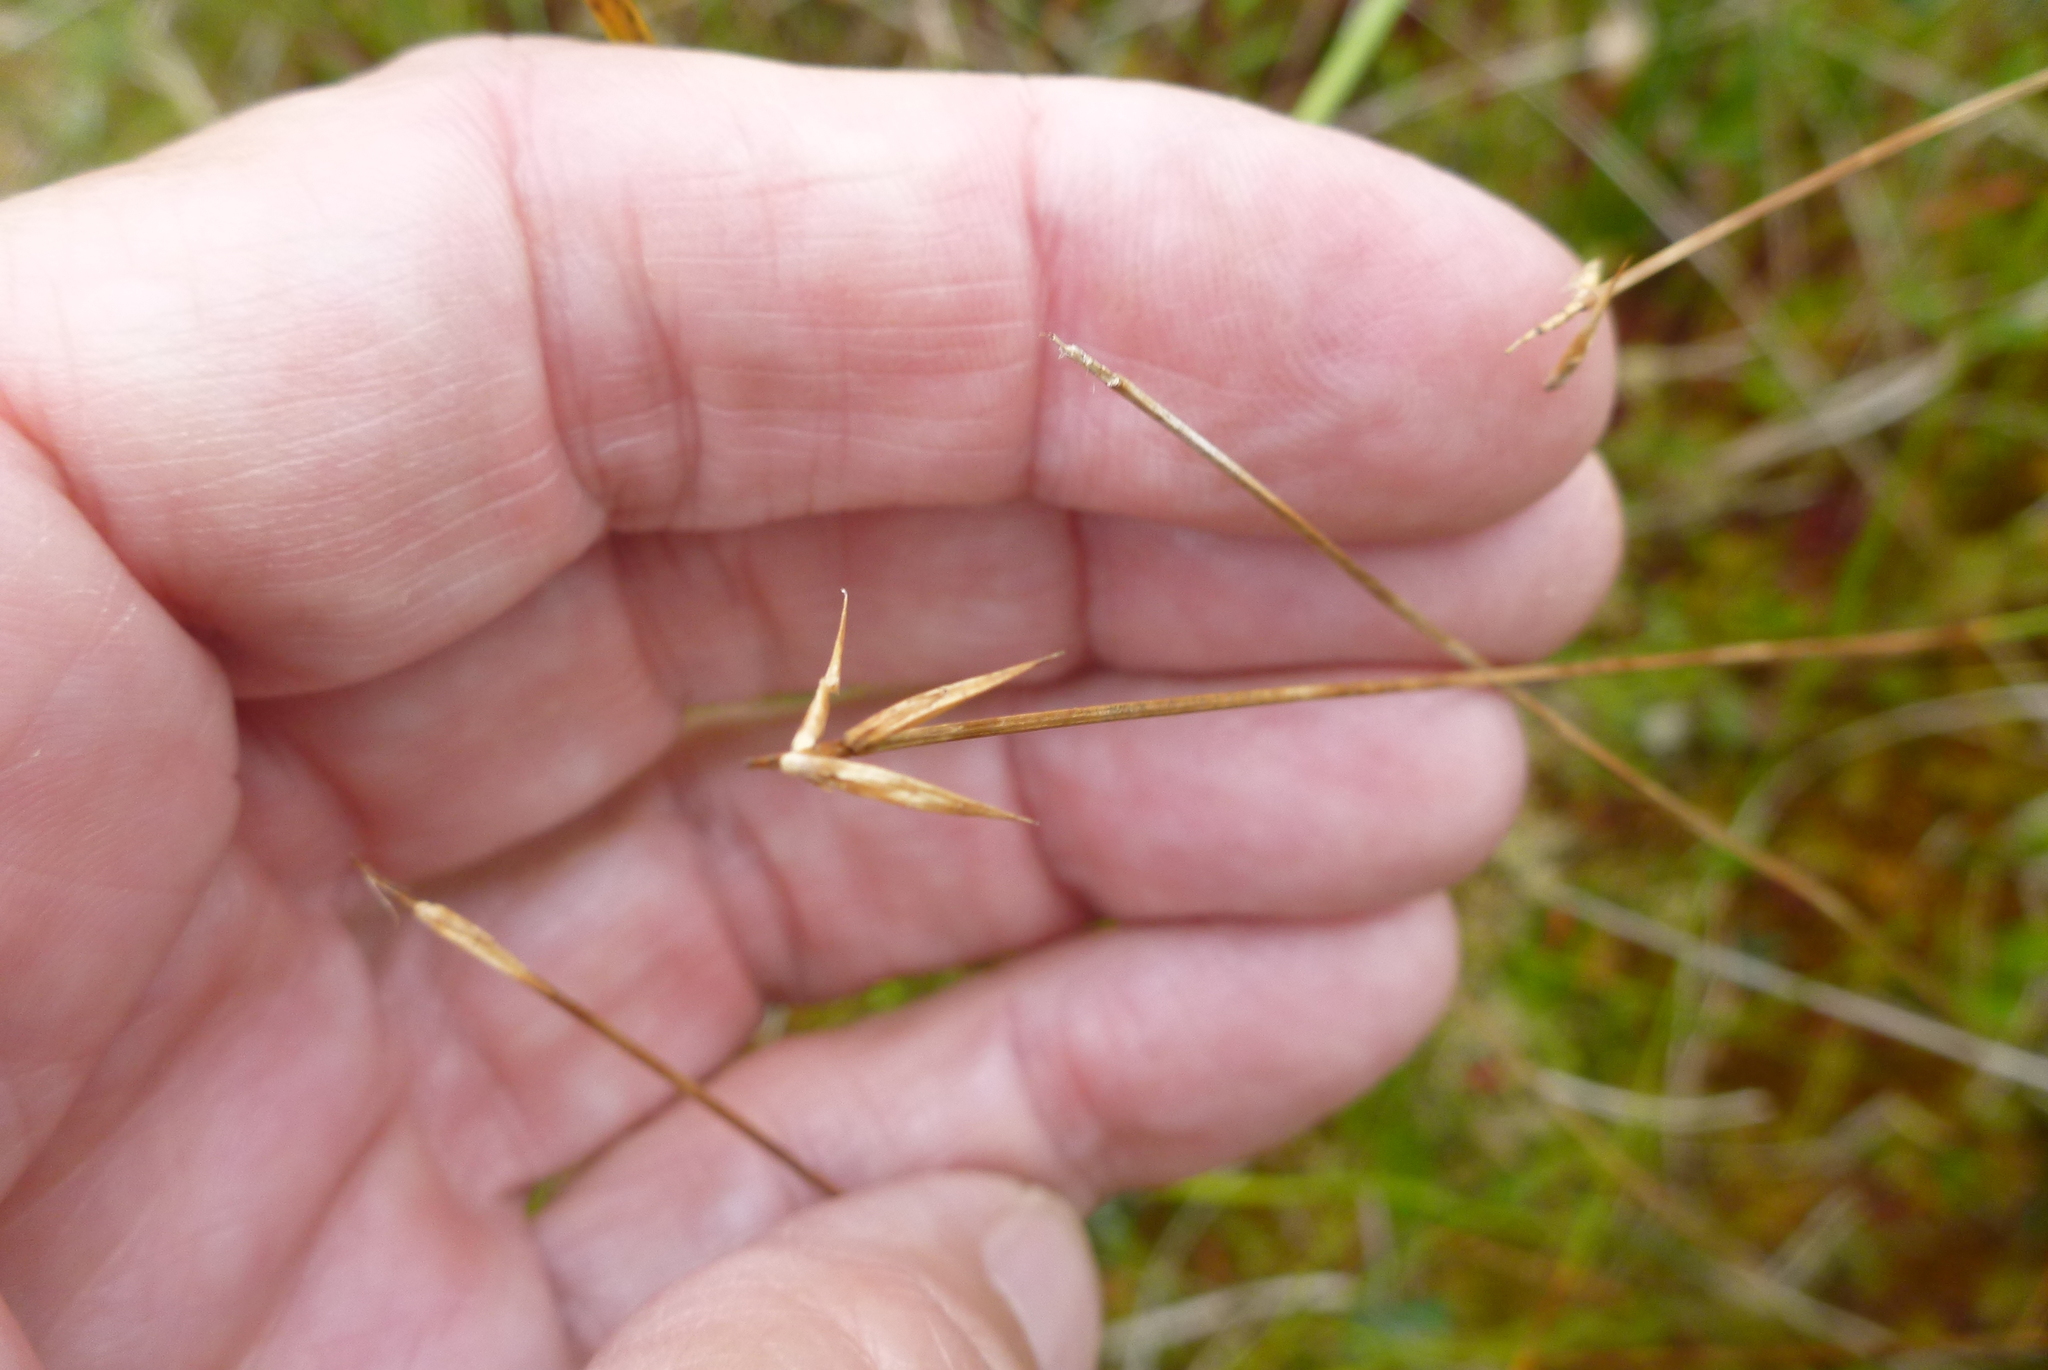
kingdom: Plantae
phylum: Tracheophyta
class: Liliopsida
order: Poales
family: Cyperaceae
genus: Carex
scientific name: Carex pauciflora
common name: Few-flowered sedge
